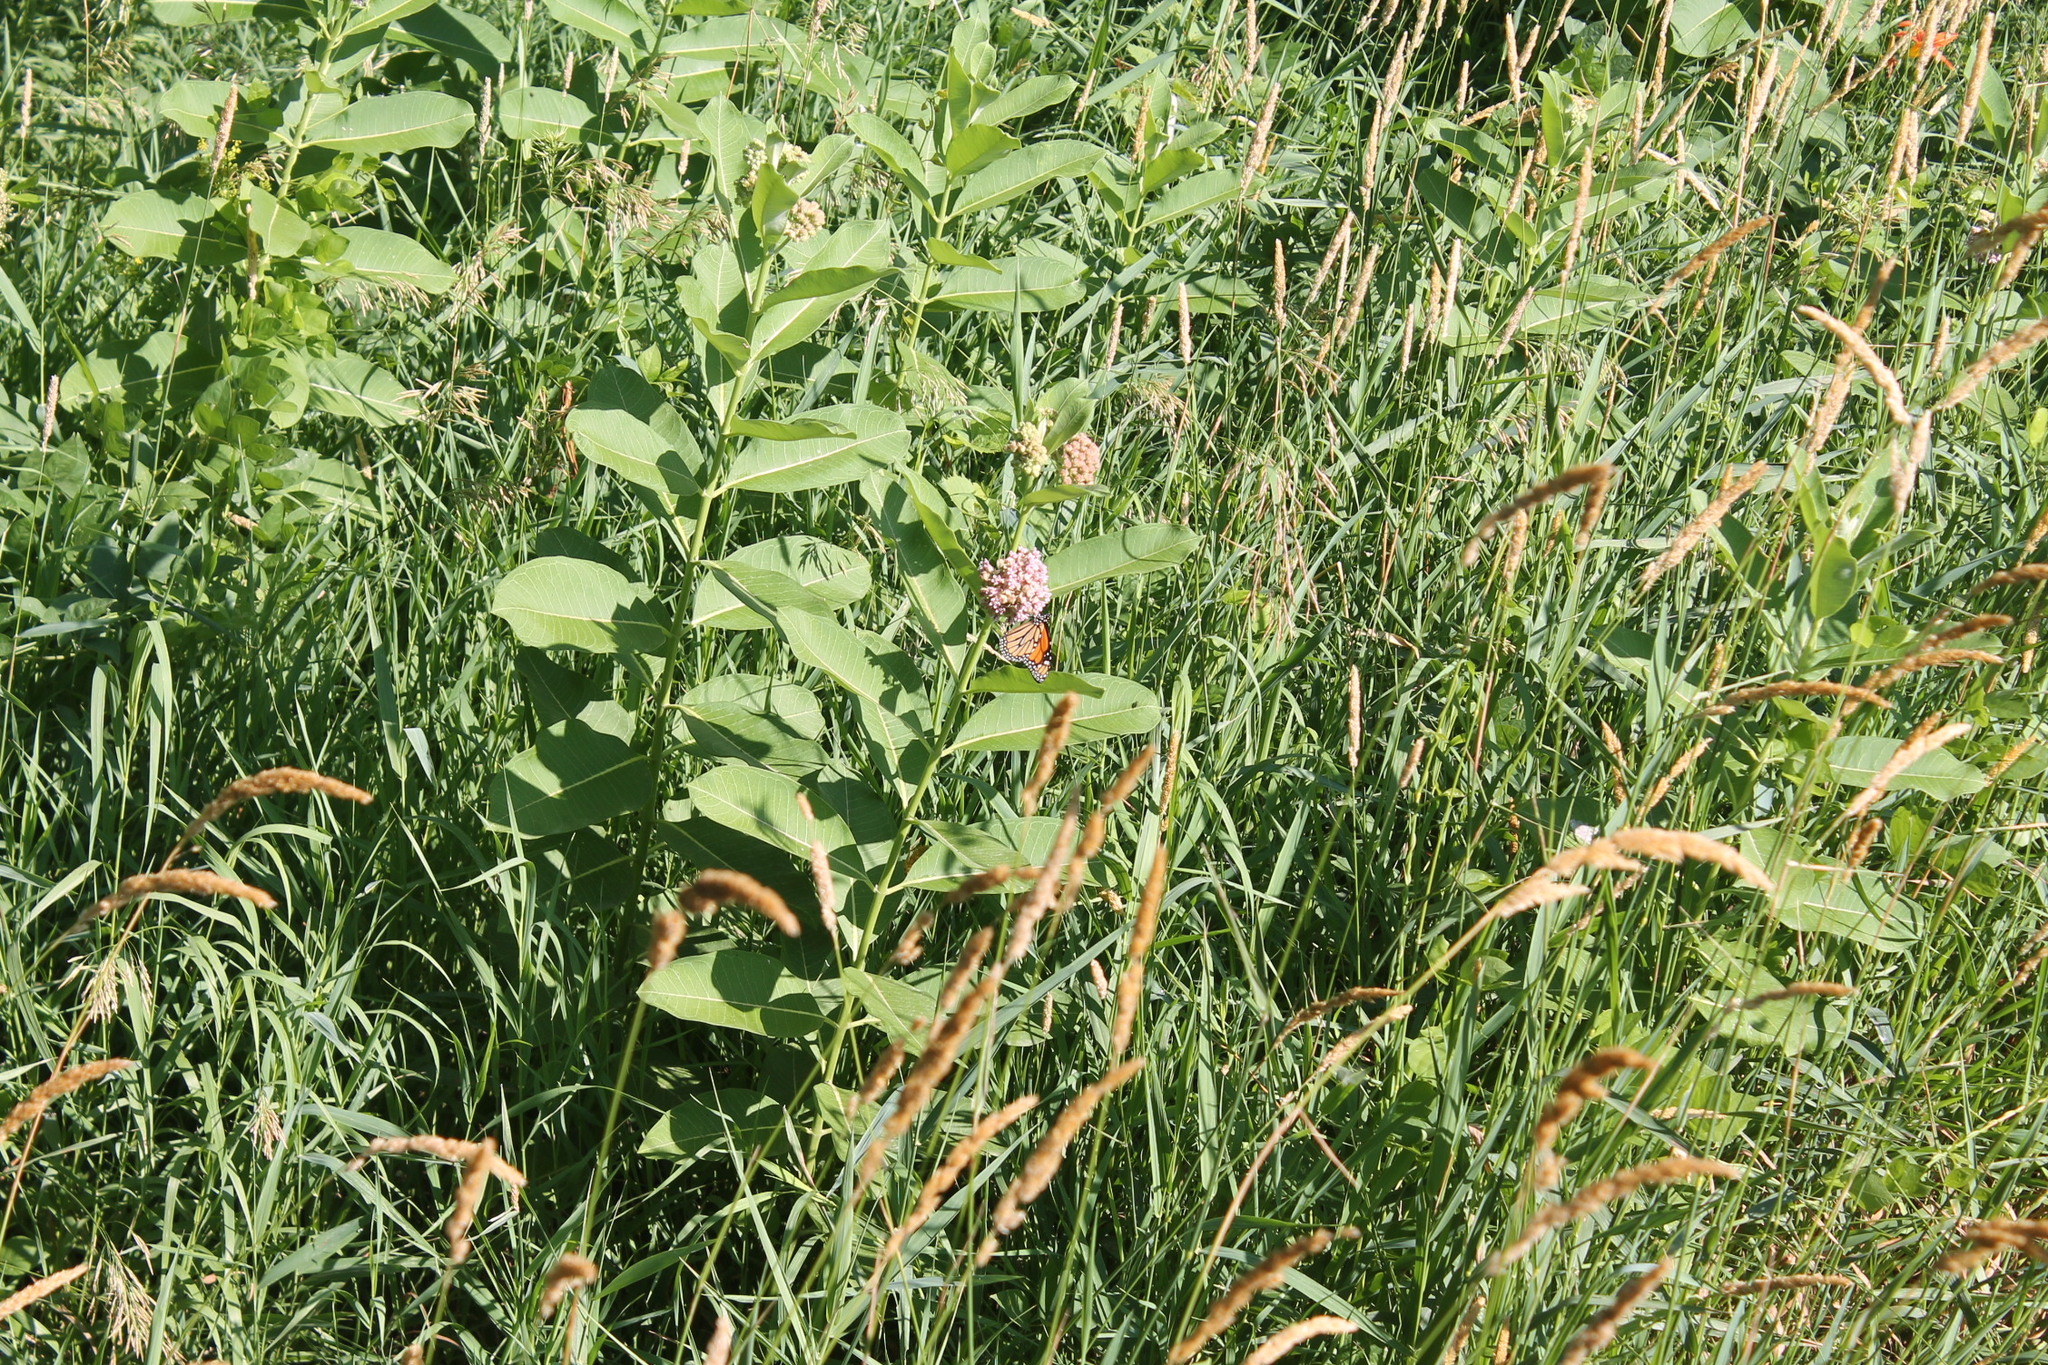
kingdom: Animalia
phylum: Arthropoda
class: Insecta
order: Lepidoptera
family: Nymphalidae
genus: Danaus
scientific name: Danaus plexippus
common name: Monarch
